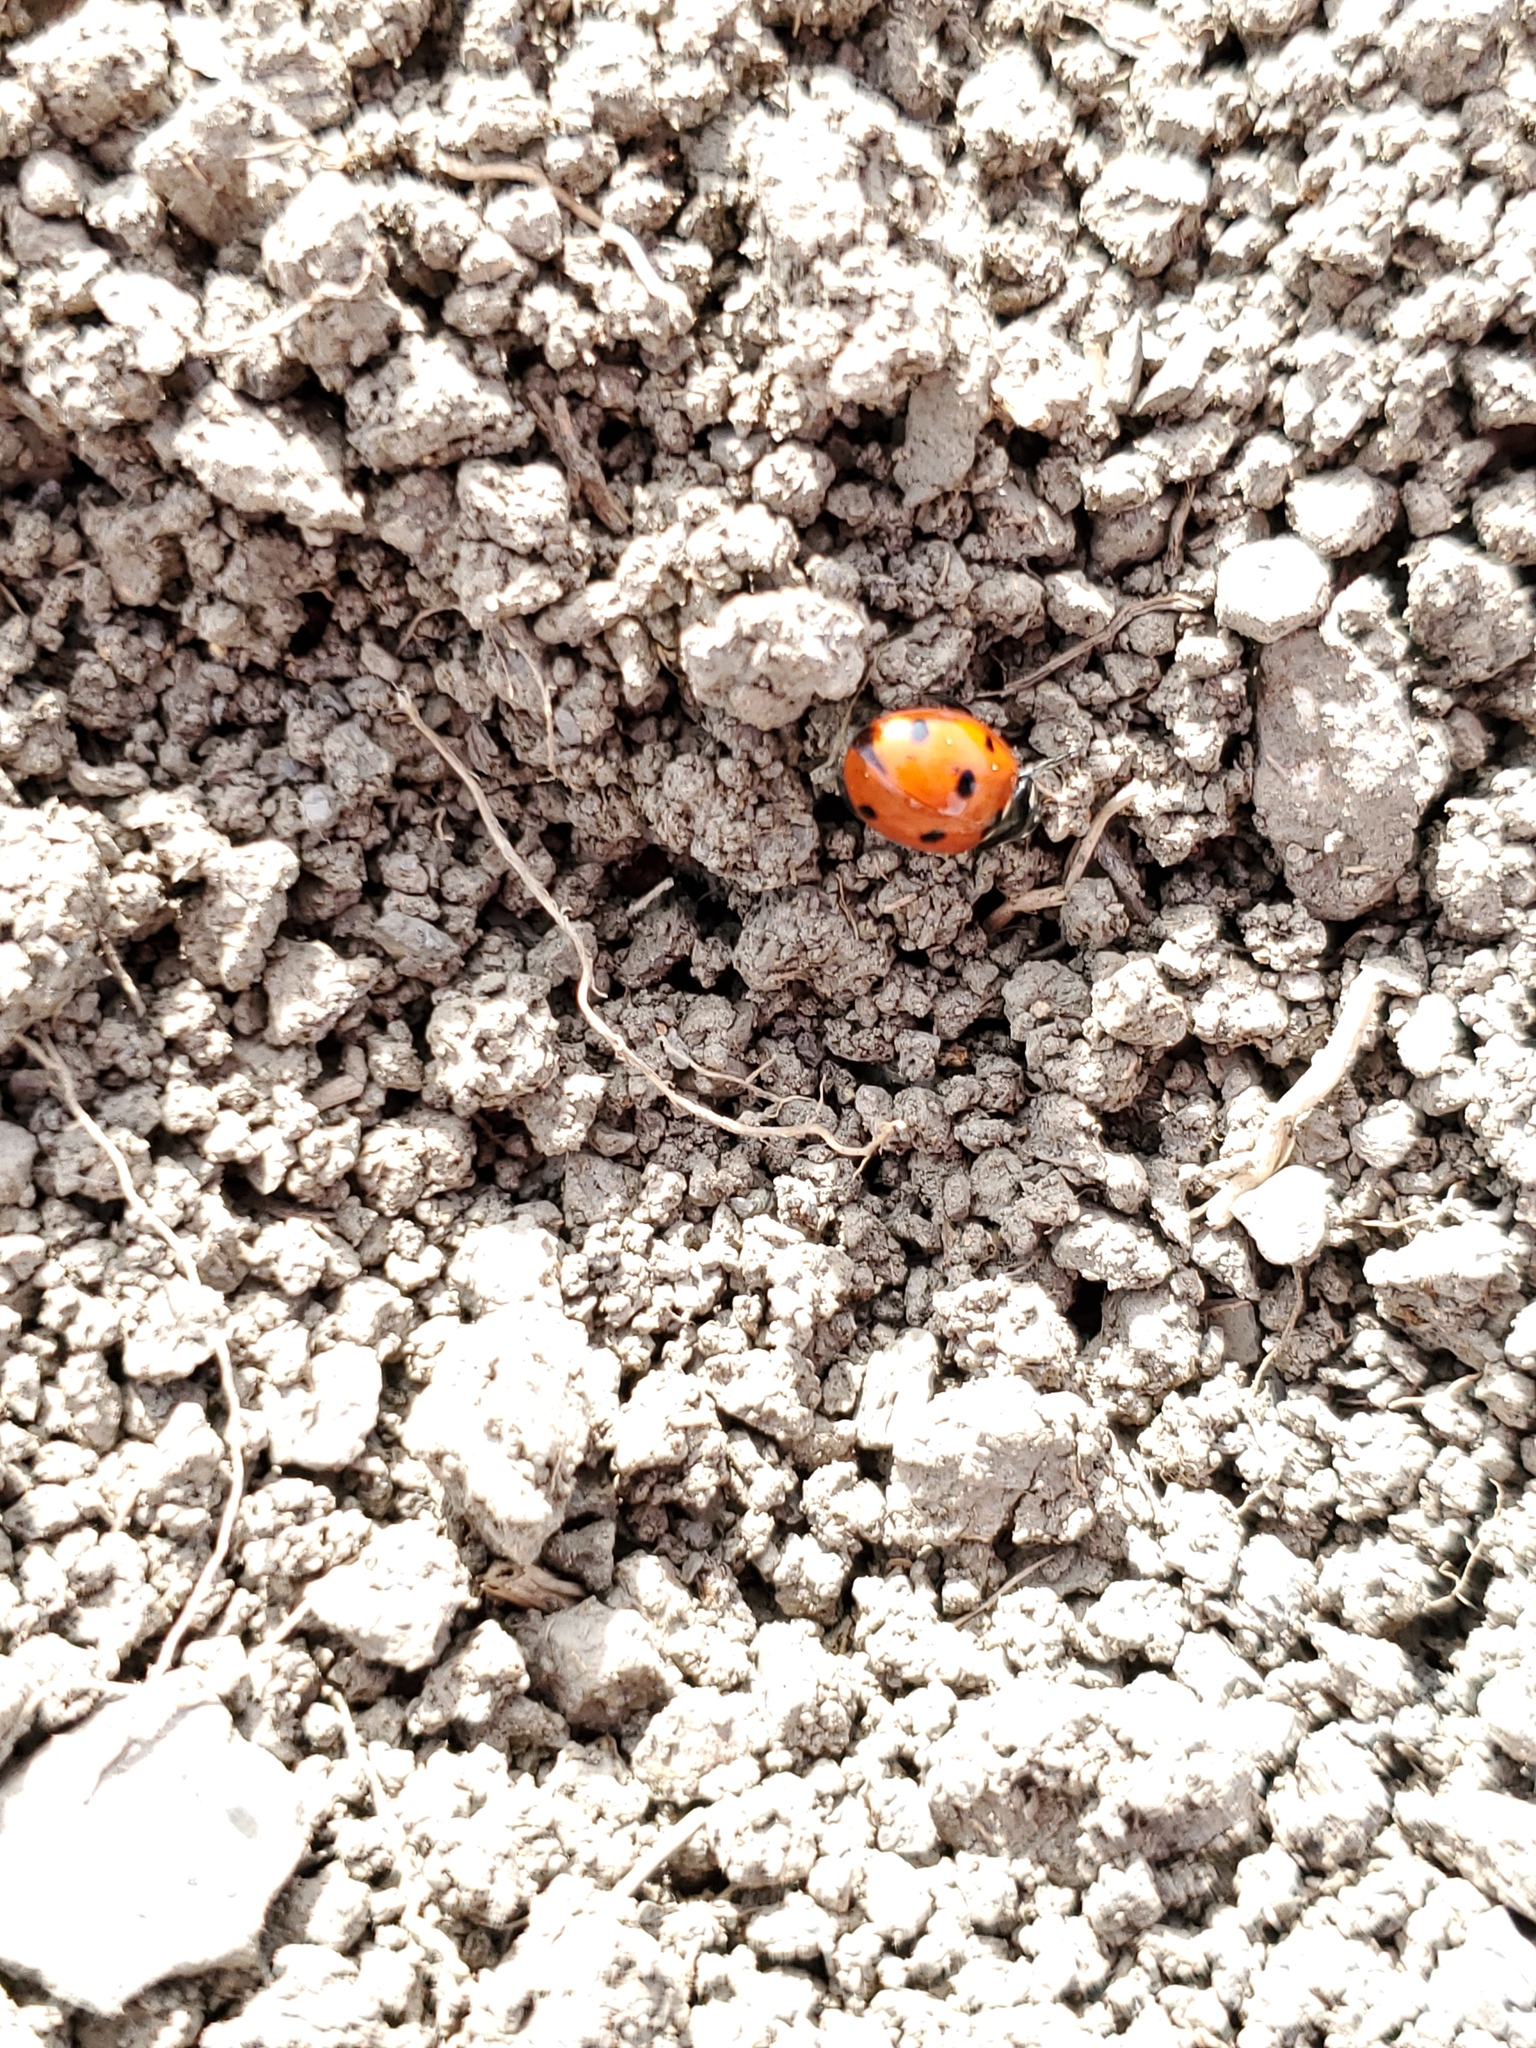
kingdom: Animalia
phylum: Arthropoda
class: Insecta
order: Coleoptera
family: Coccinellidae
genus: Coccinella
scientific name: Coccinella septempunctata
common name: Sevenspotted lady beetle
